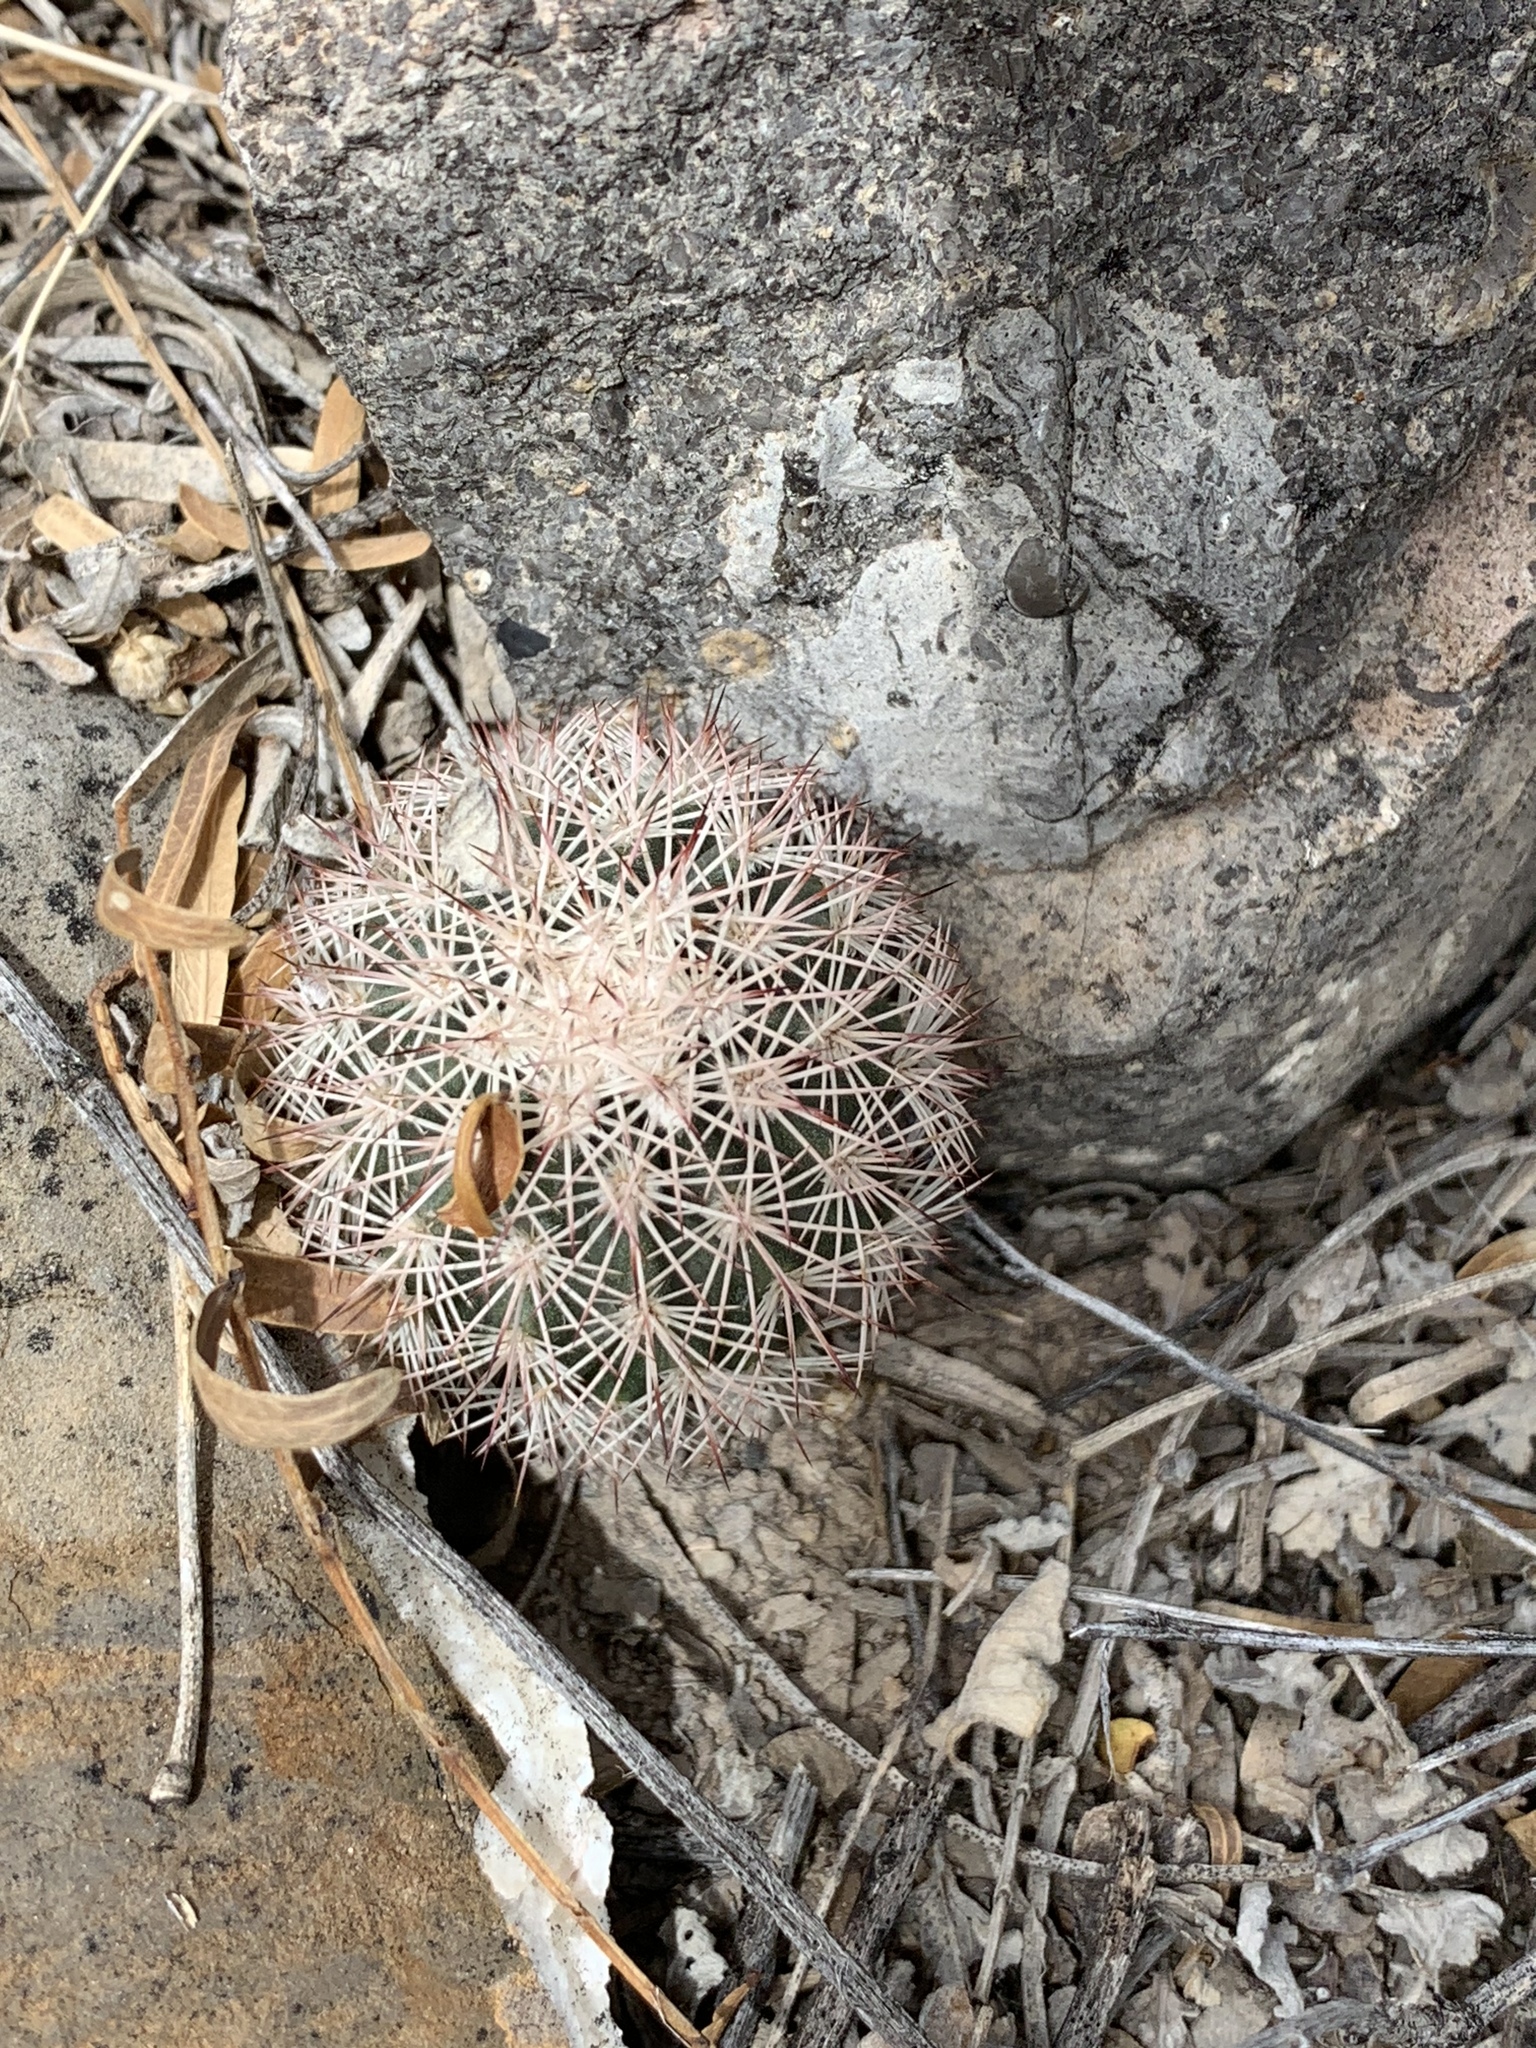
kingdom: Plantae
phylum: Tracheophyta
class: Magnoliopsida
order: Caryophyllales
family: Cactaceae
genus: Echinocereus
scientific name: Echinocereus dasyacanthus
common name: Spiny hedgehog cactus
